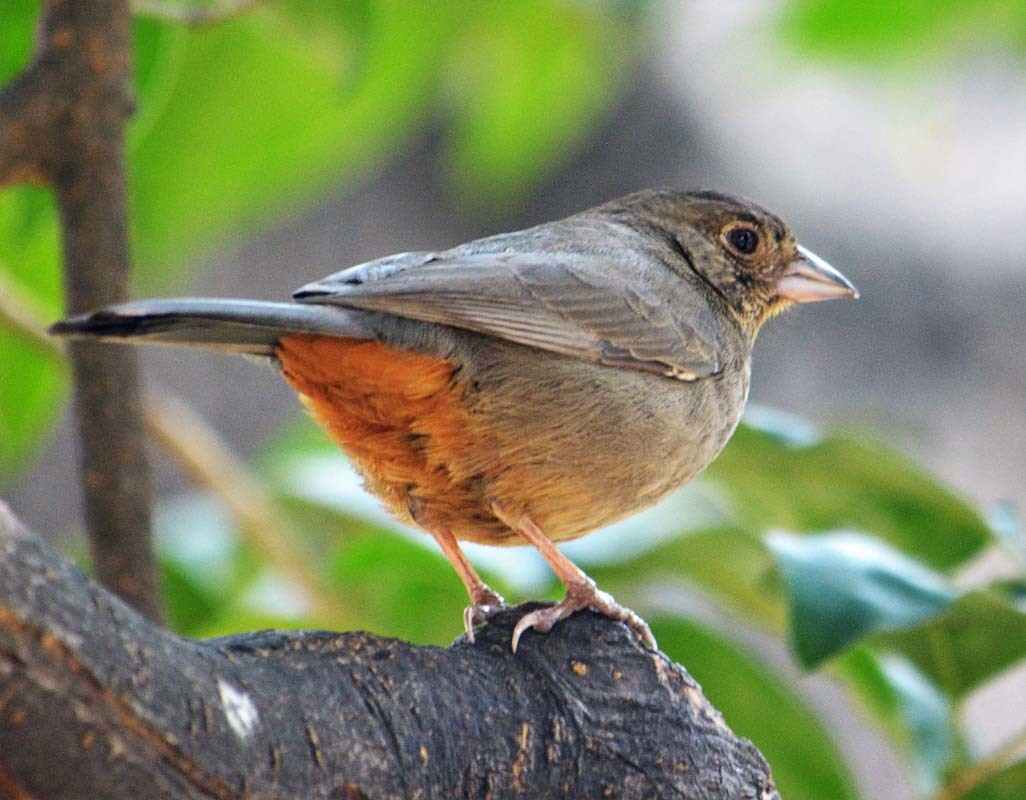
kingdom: Animalia
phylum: Chordata
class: Aves
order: Passeriformes
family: Passerellidae
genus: Melozone
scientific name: Melozone fusca
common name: Canyon towhee
